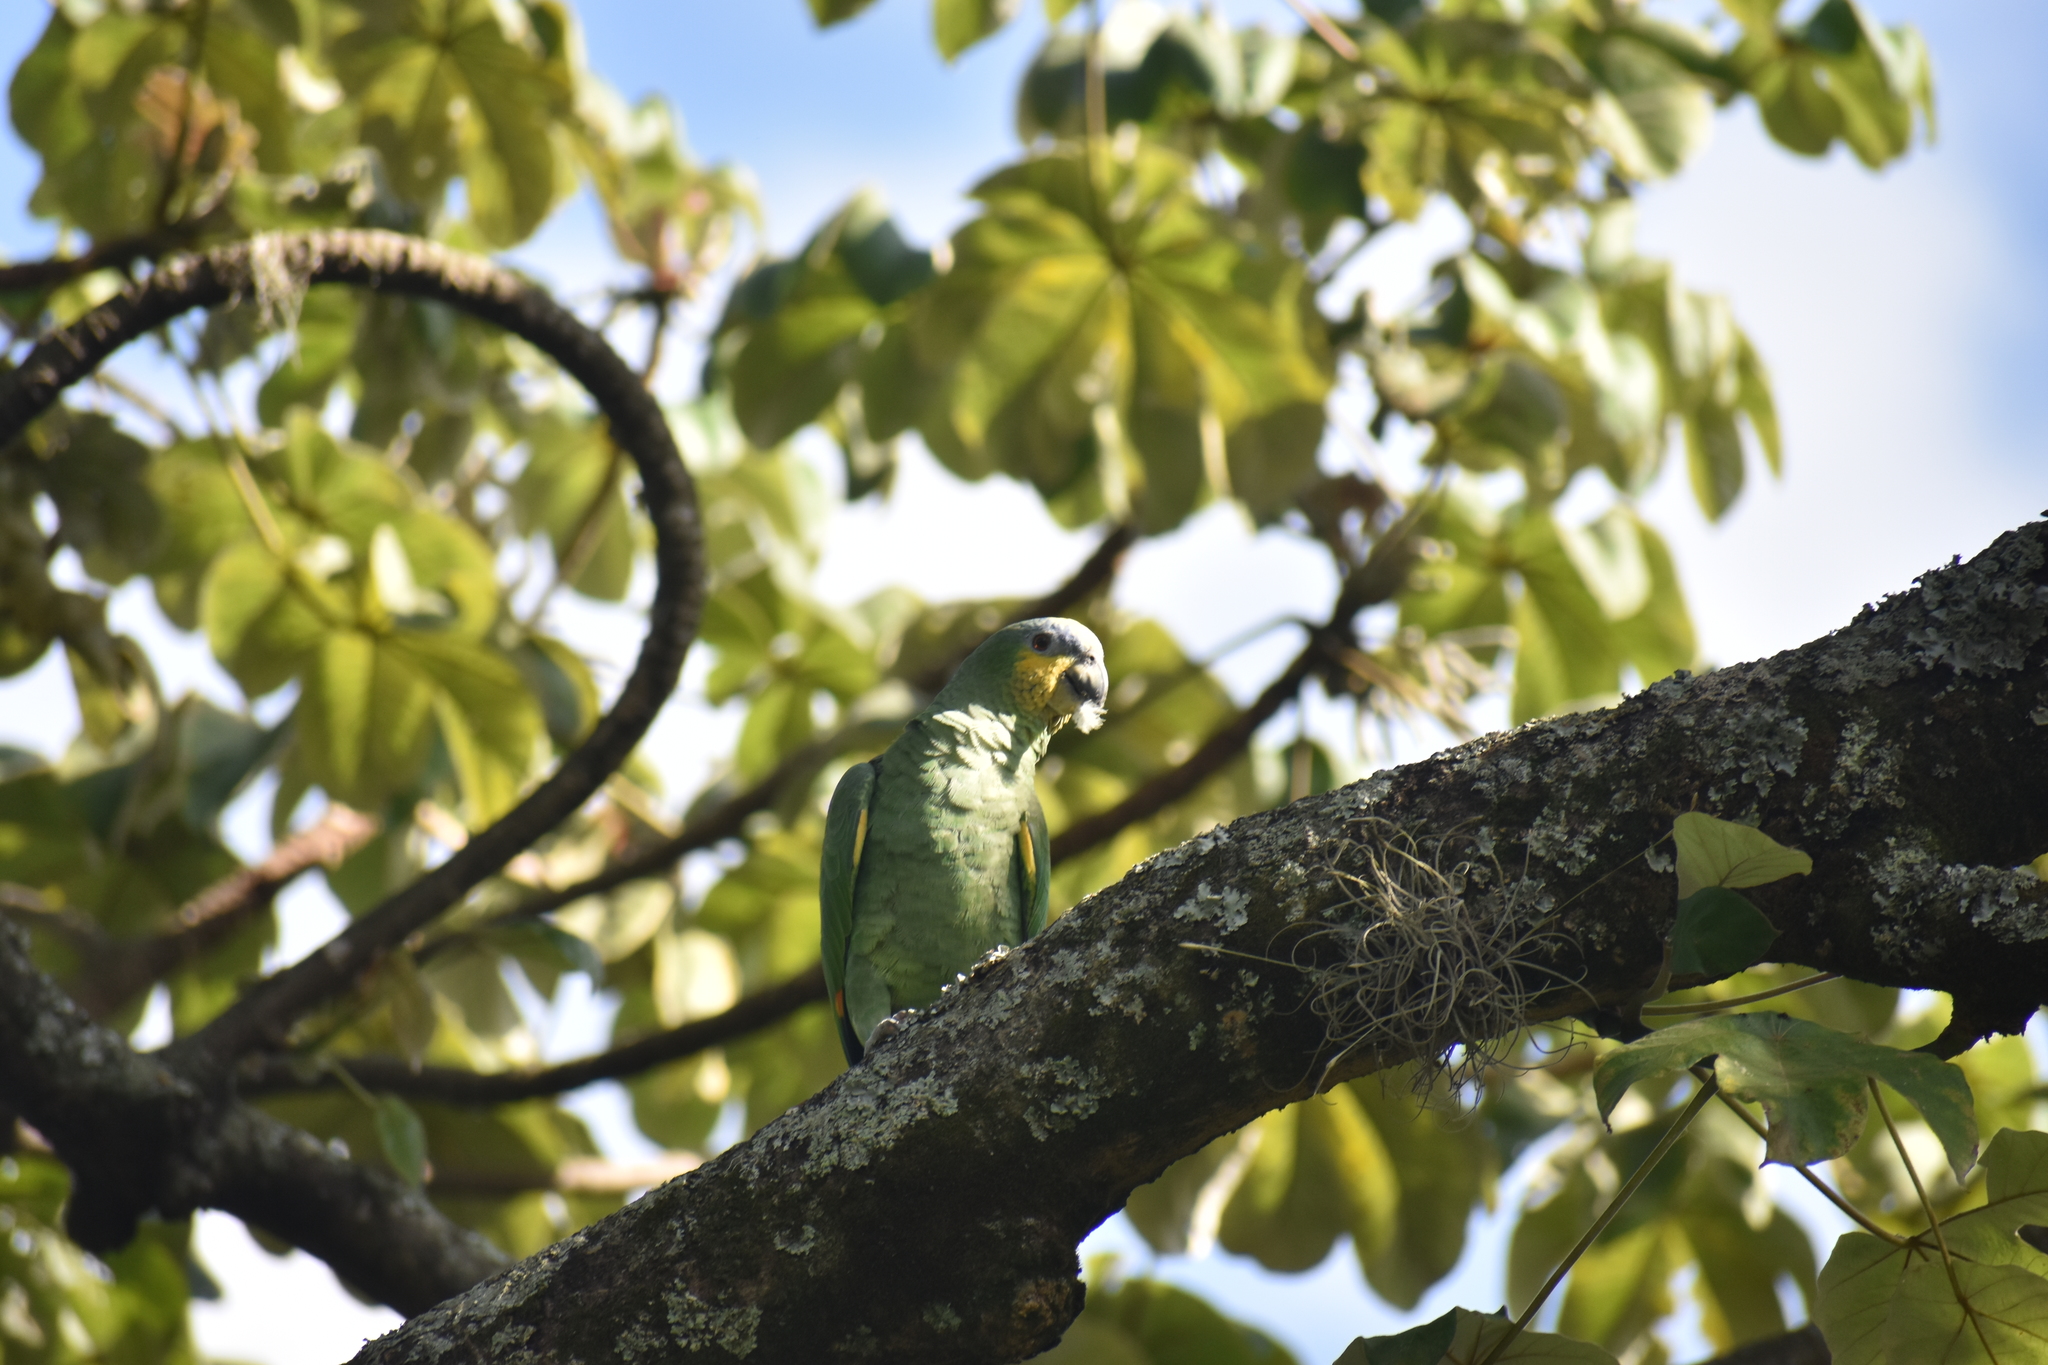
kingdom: Animalia
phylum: Chordata
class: Aves
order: Psittaciformes
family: Psittacidae
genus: Amazona
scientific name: Amazona amazonica
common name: Orange-winged amazon
